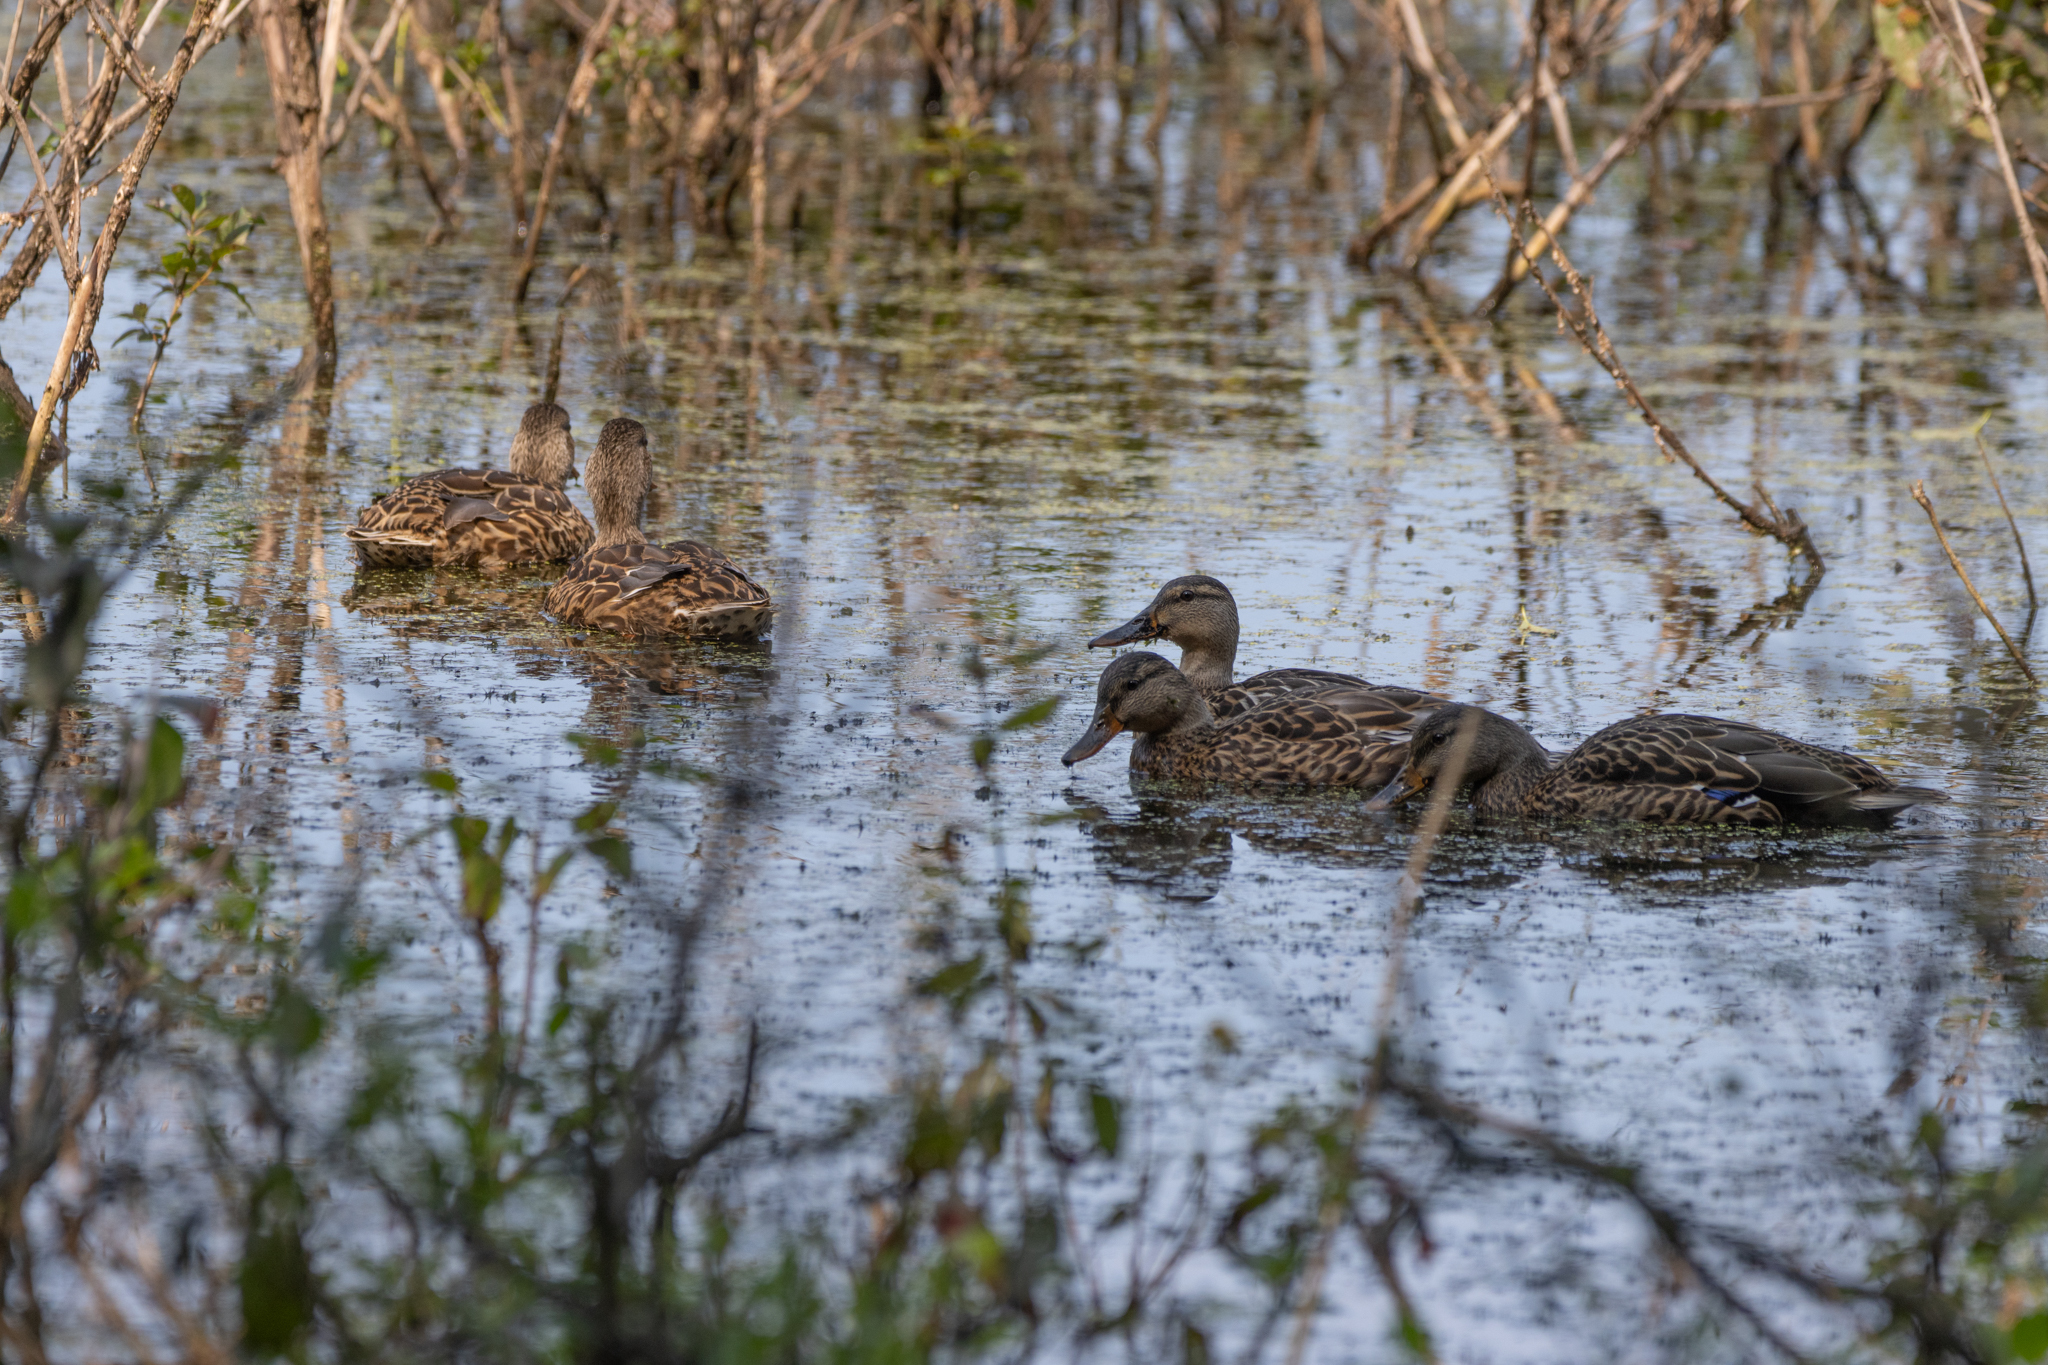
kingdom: Animalia
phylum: Chordata
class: Aves
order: Anseriformes
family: Anatidae
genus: Anas
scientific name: Anas platyrhynchos
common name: Mallard
